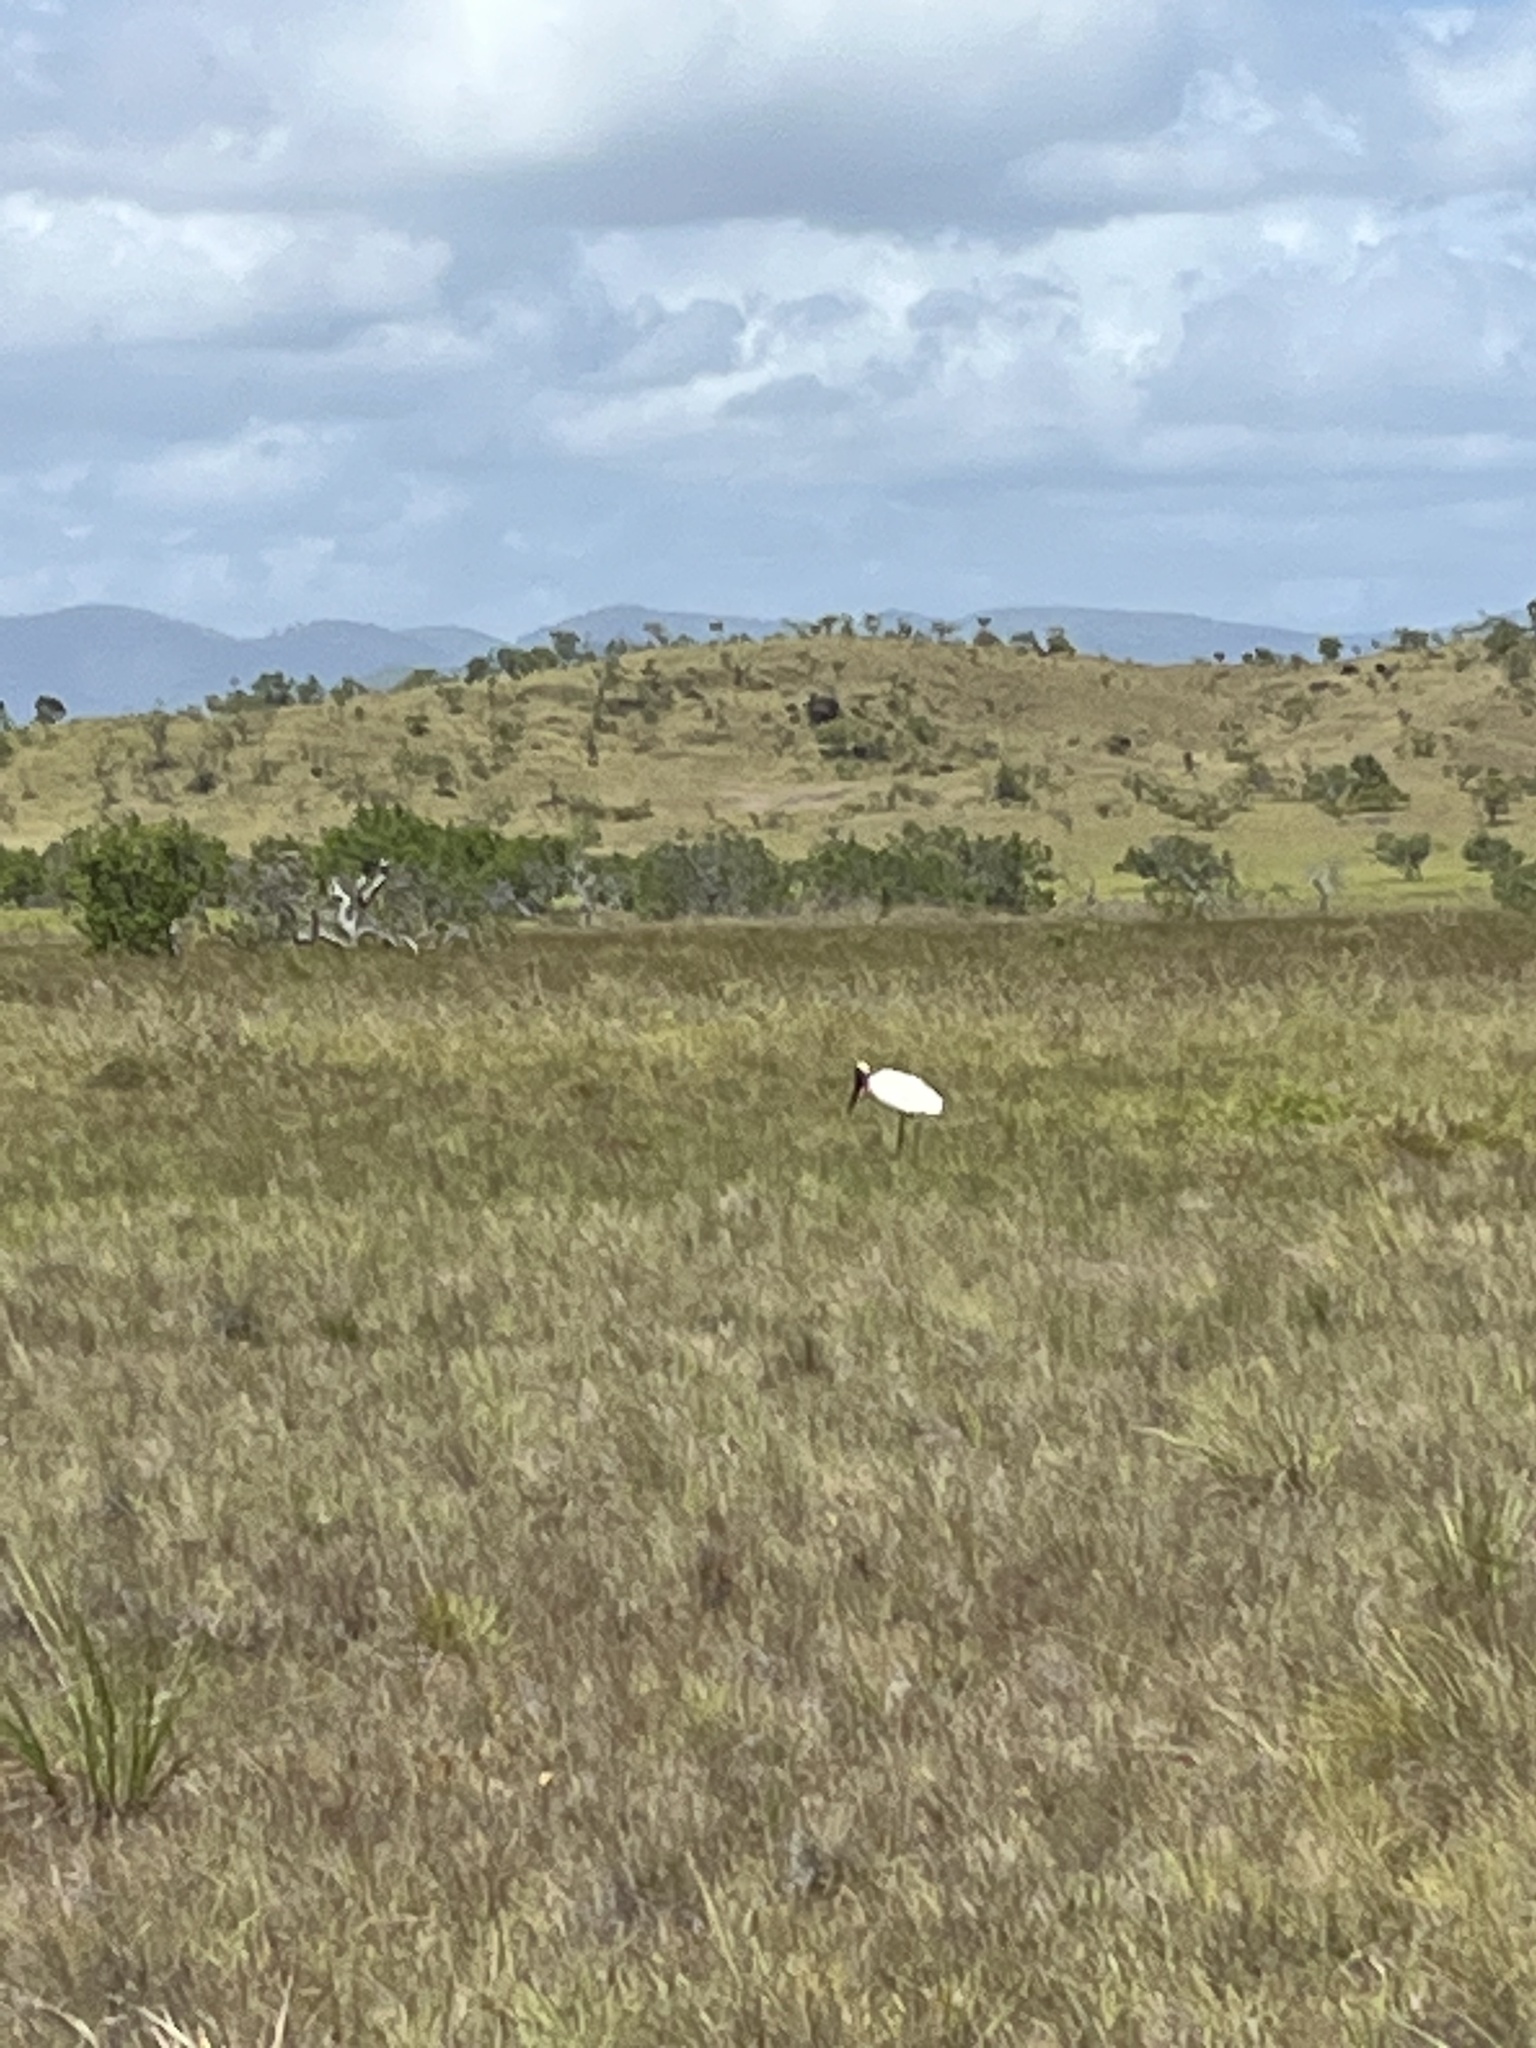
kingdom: Animalia
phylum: Chordata
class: Aves
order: Ciconiiformes
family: Ciconiidae
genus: Jabiru
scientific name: Jabiru mycteria
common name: Jabiru
